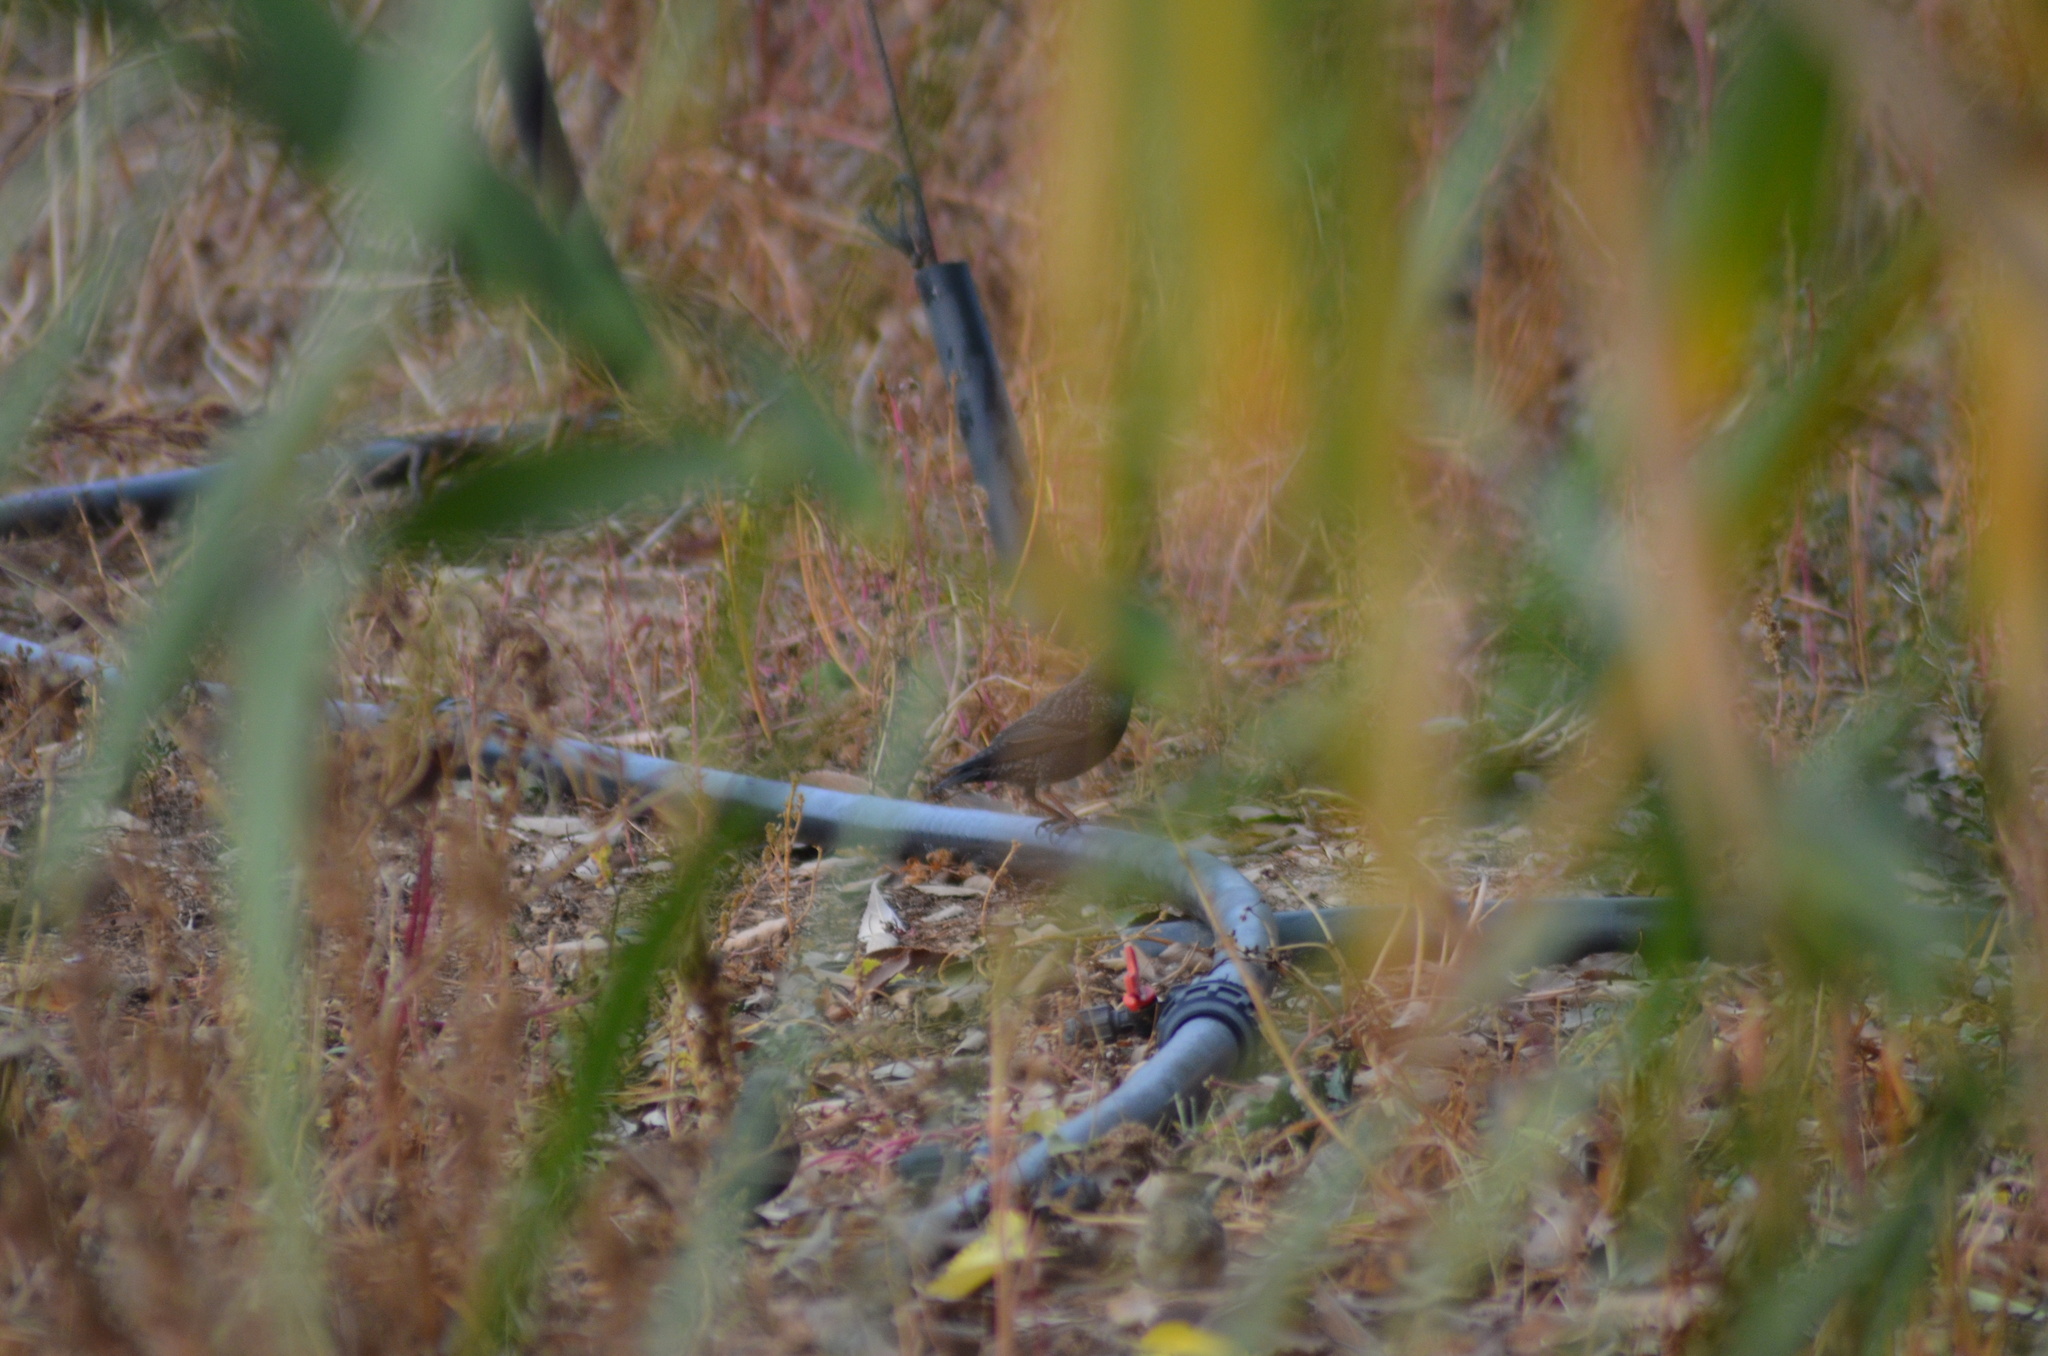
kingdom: Animalia
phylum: Chordata
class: Aves
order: Passeriformes
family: Sturnidae
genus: Sturnus
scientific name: Sturnus vulgaris
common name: Common starling
